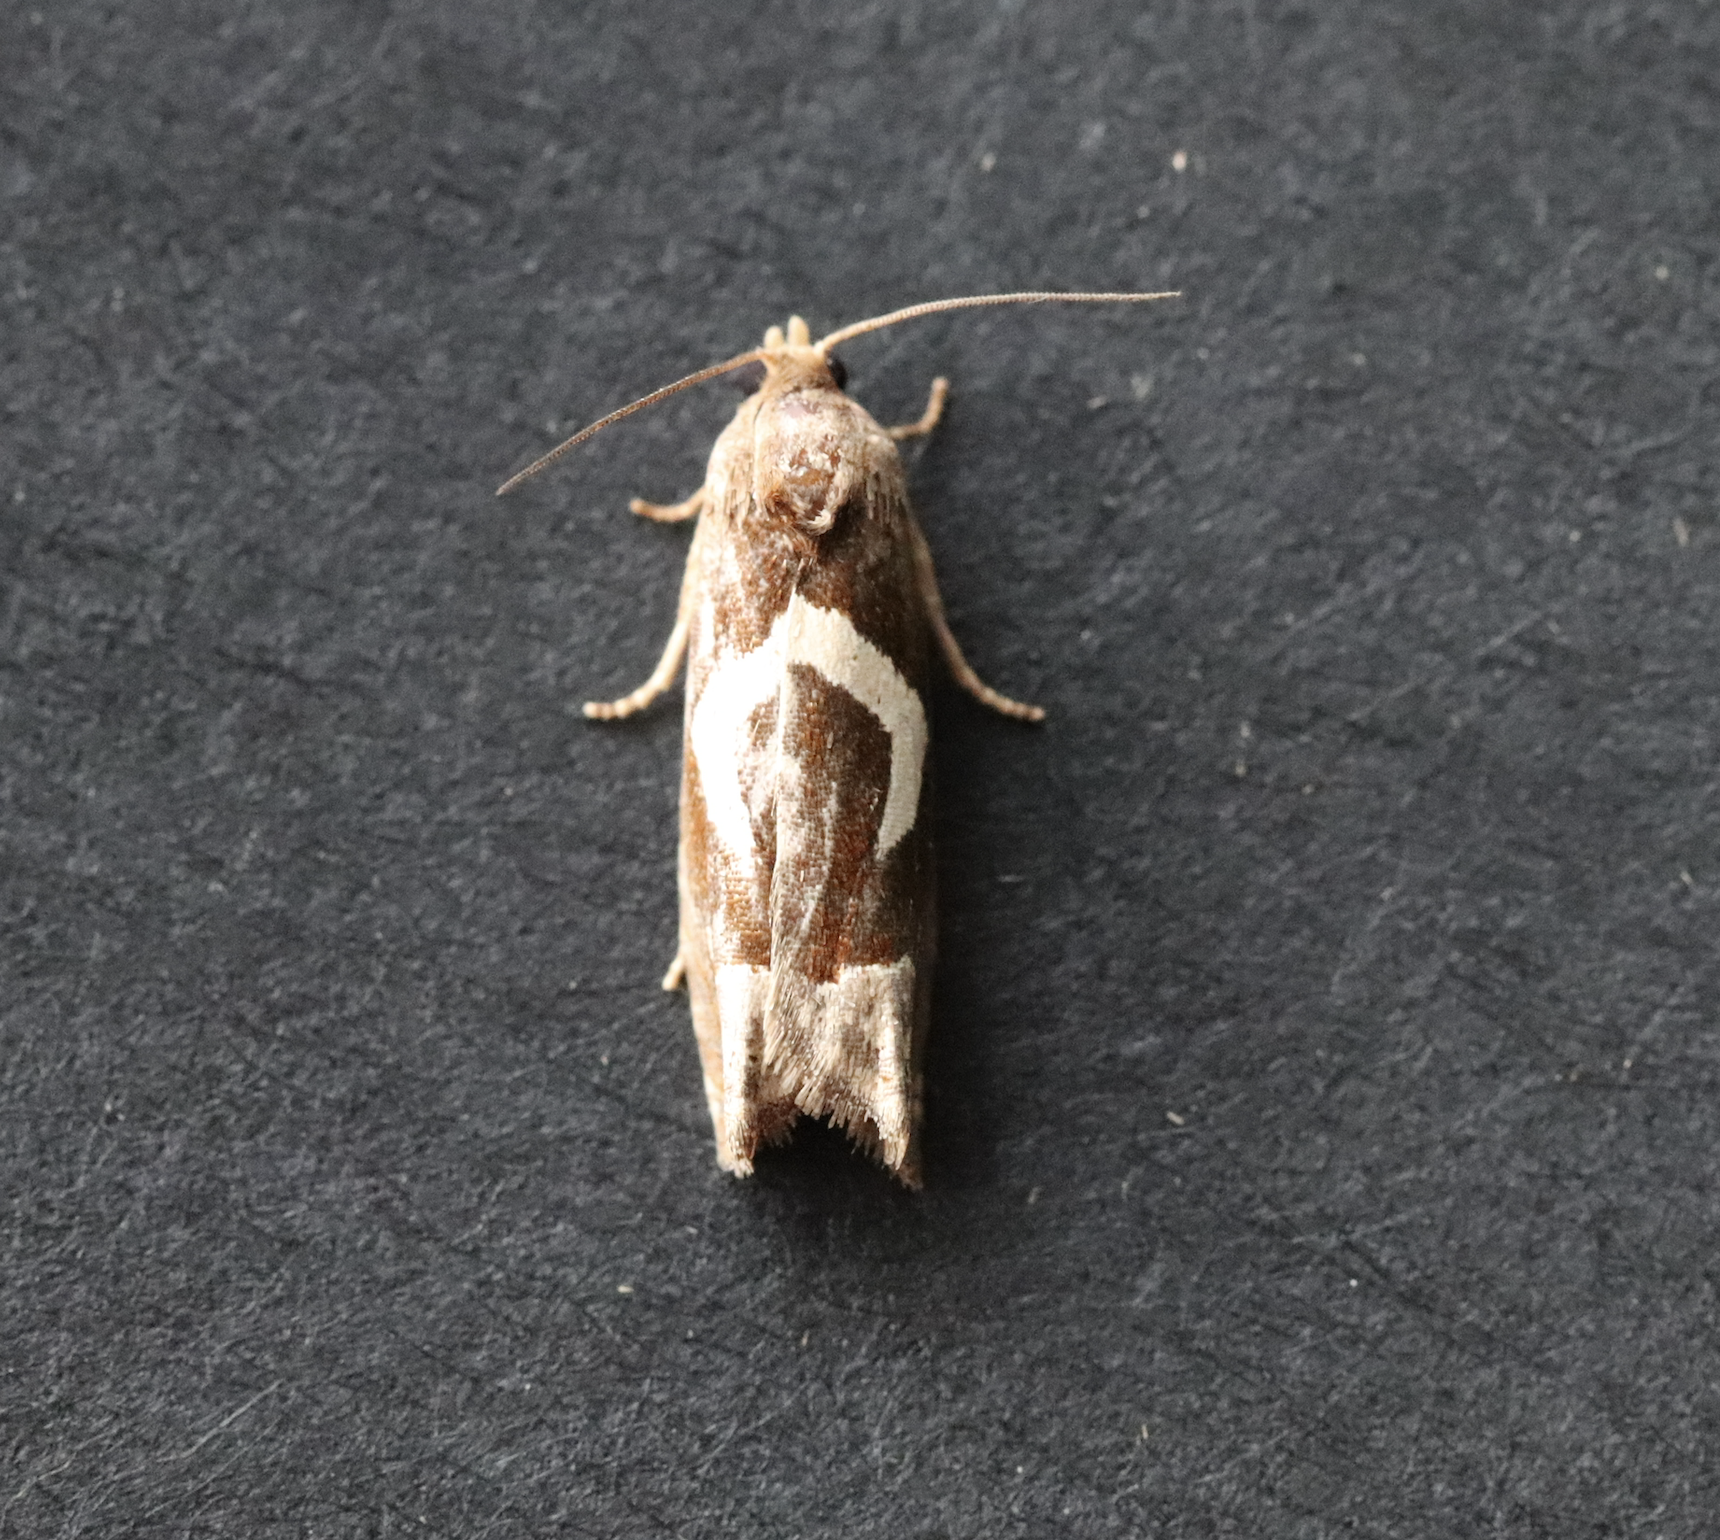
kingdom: Animalia
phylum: Arthropoda
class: Insecta
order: Lepidoptera
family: Tortricidae
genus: Epiblema
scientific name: Epiblema foenella
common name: White-foot bell
